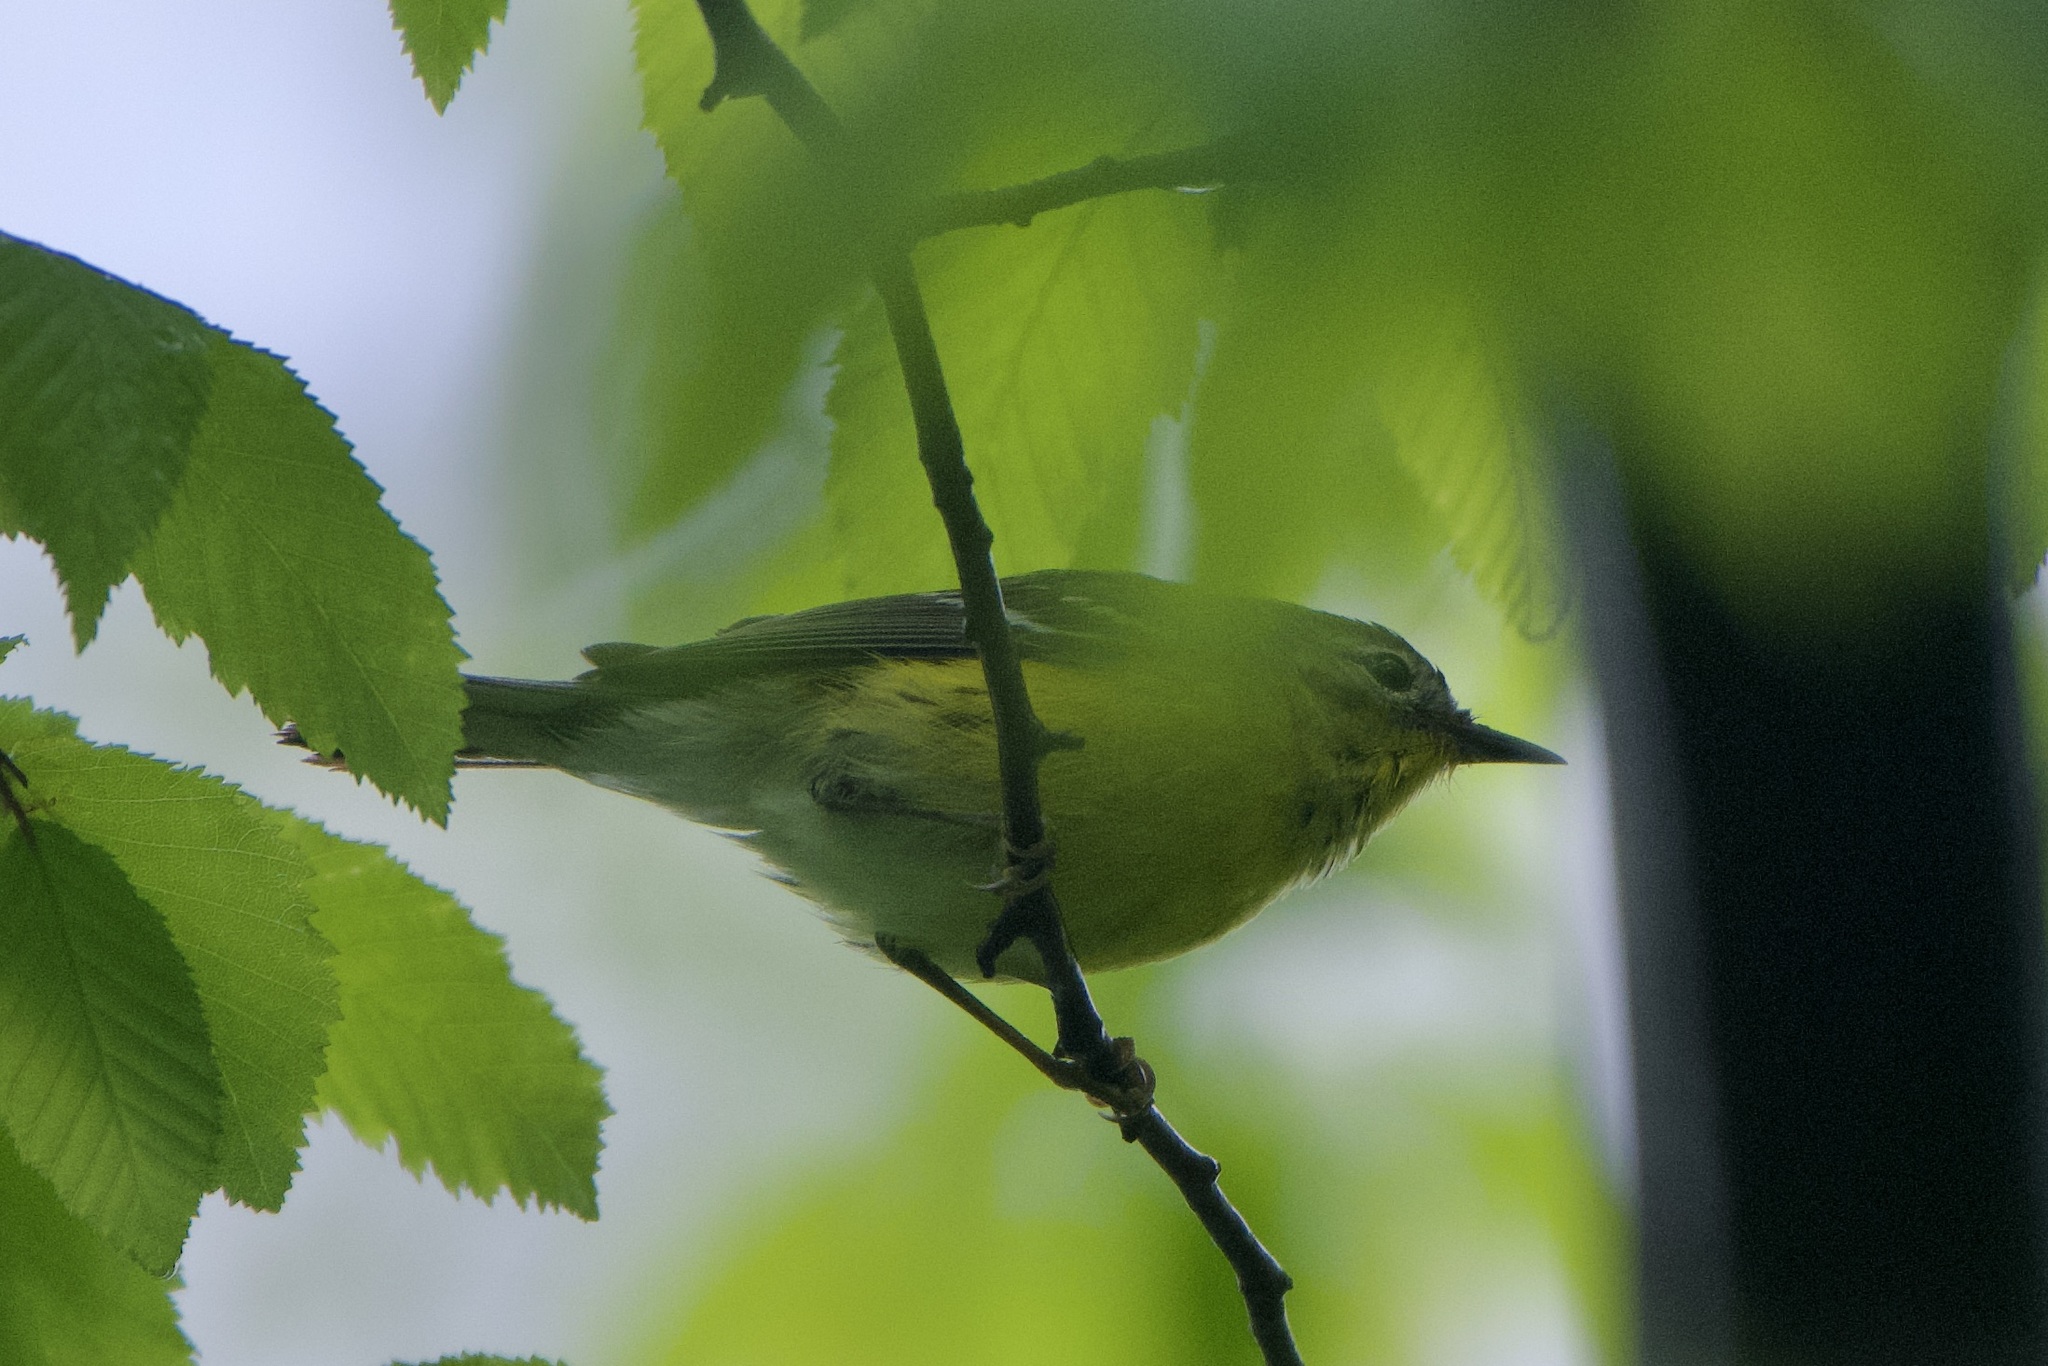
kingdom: Animalia
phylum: Chordata
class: Aves
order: Passeriformes
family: Parulidae
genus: Setophaga
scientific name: Setophaga magnolia
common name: Magnolia warbler
